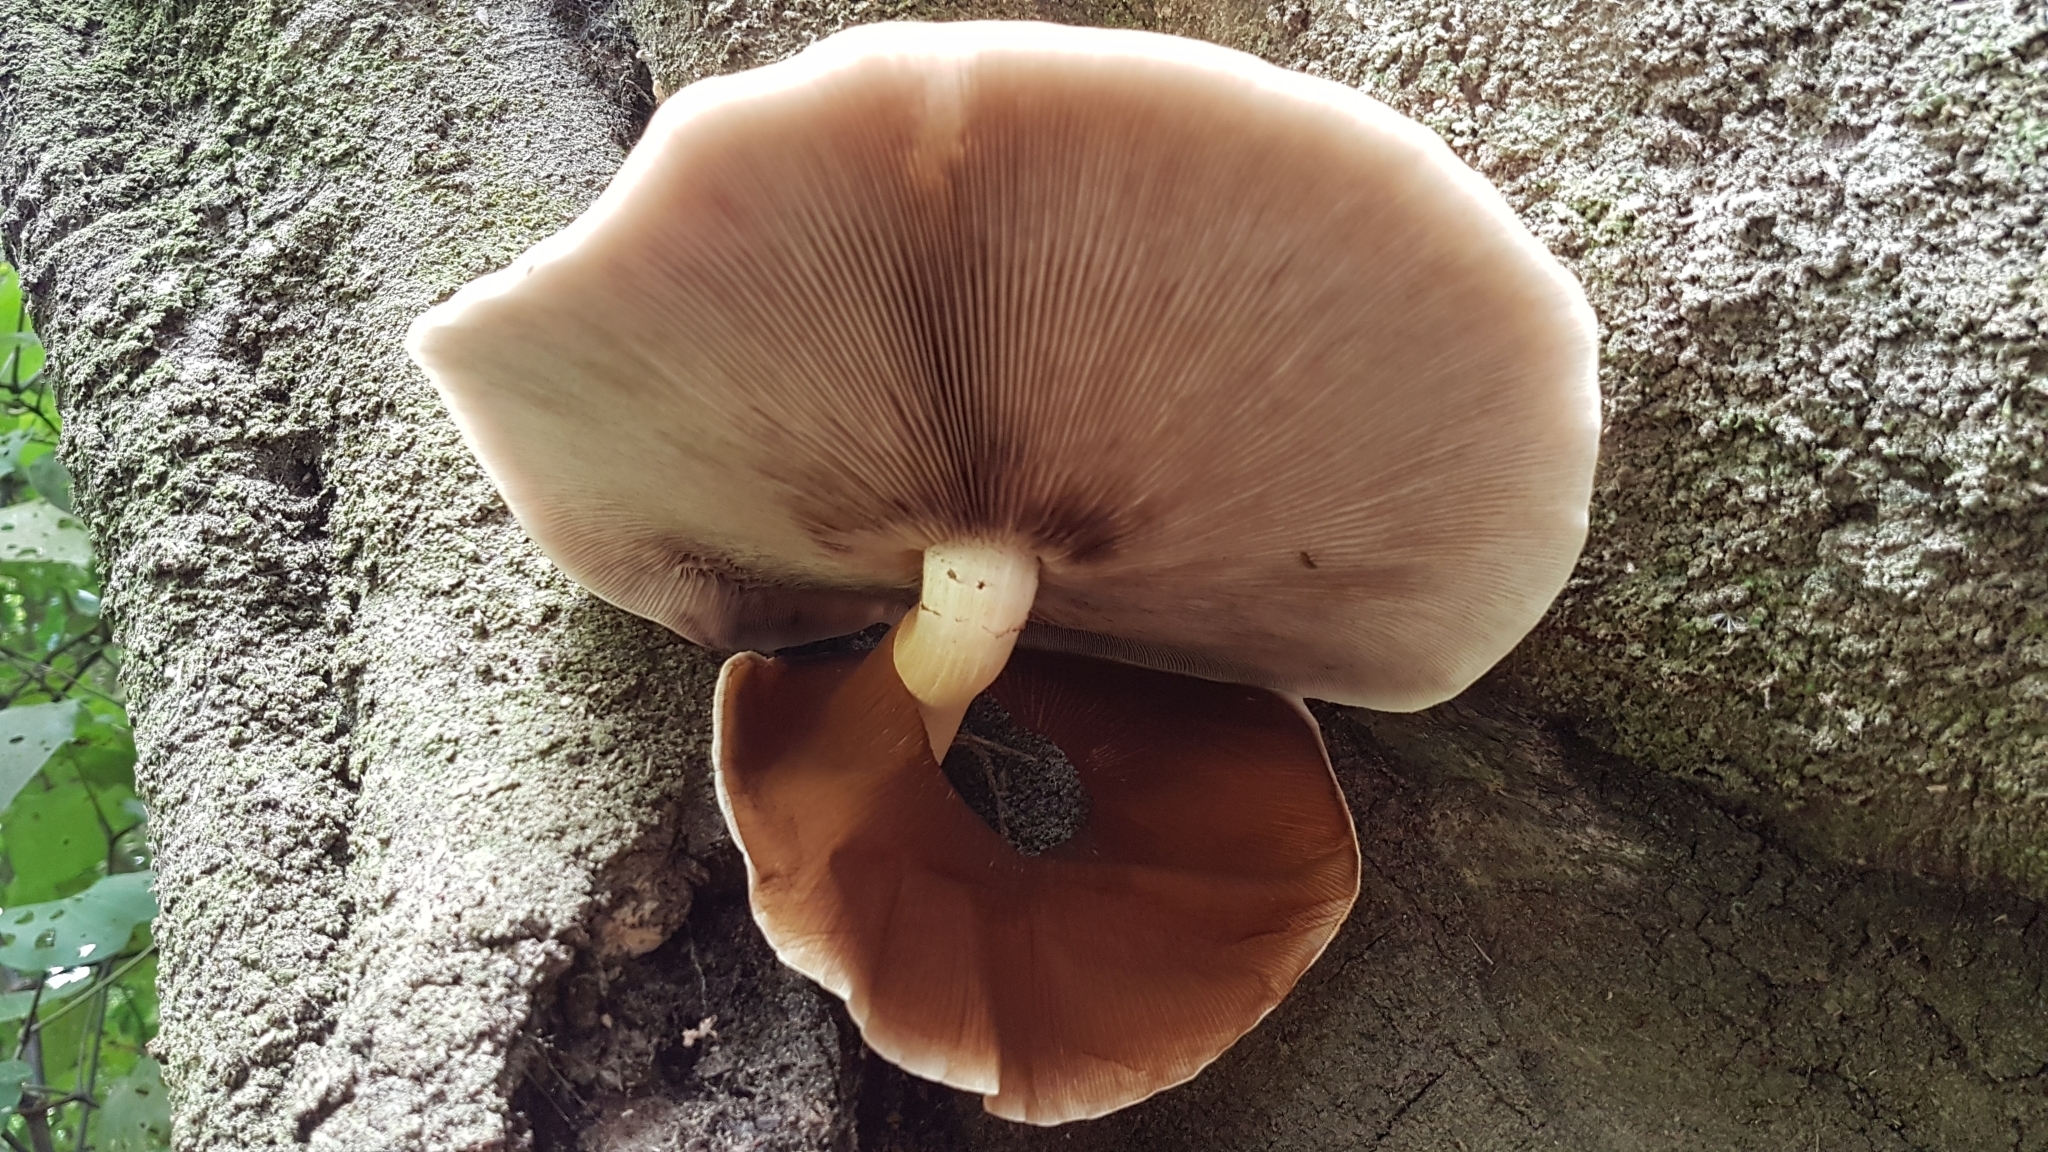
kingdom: Fungi
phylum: Basidiomycota
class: Agaricomycetes
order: Agaricales
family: Tubariaceae
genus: Cyclocybe
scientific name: Cyclocybe parasitica
